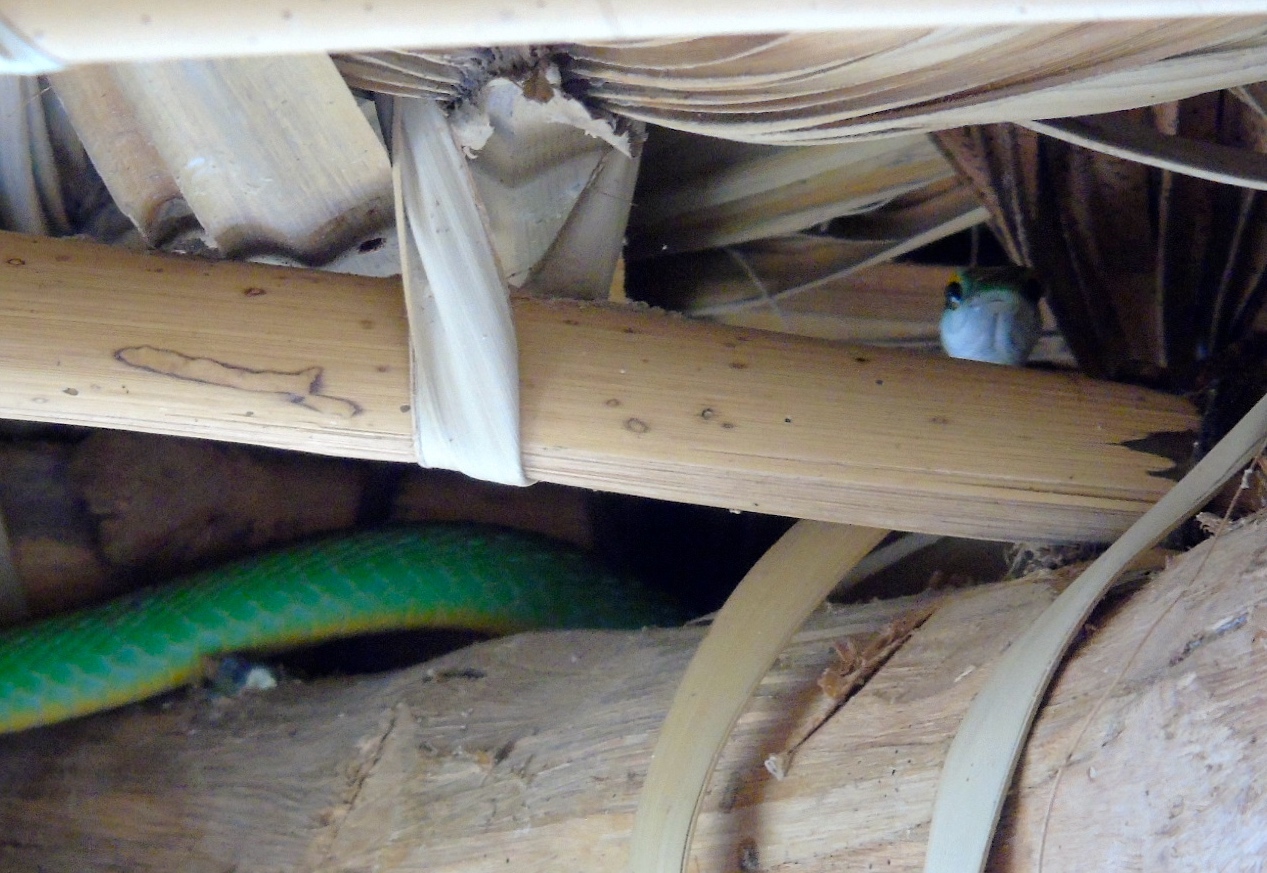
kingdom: Animalia
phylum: Chordata
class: Squamata
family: Colubridae
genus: Leptophis
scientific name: Leptophis diplotropis
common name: Pacific coast parrot snake
